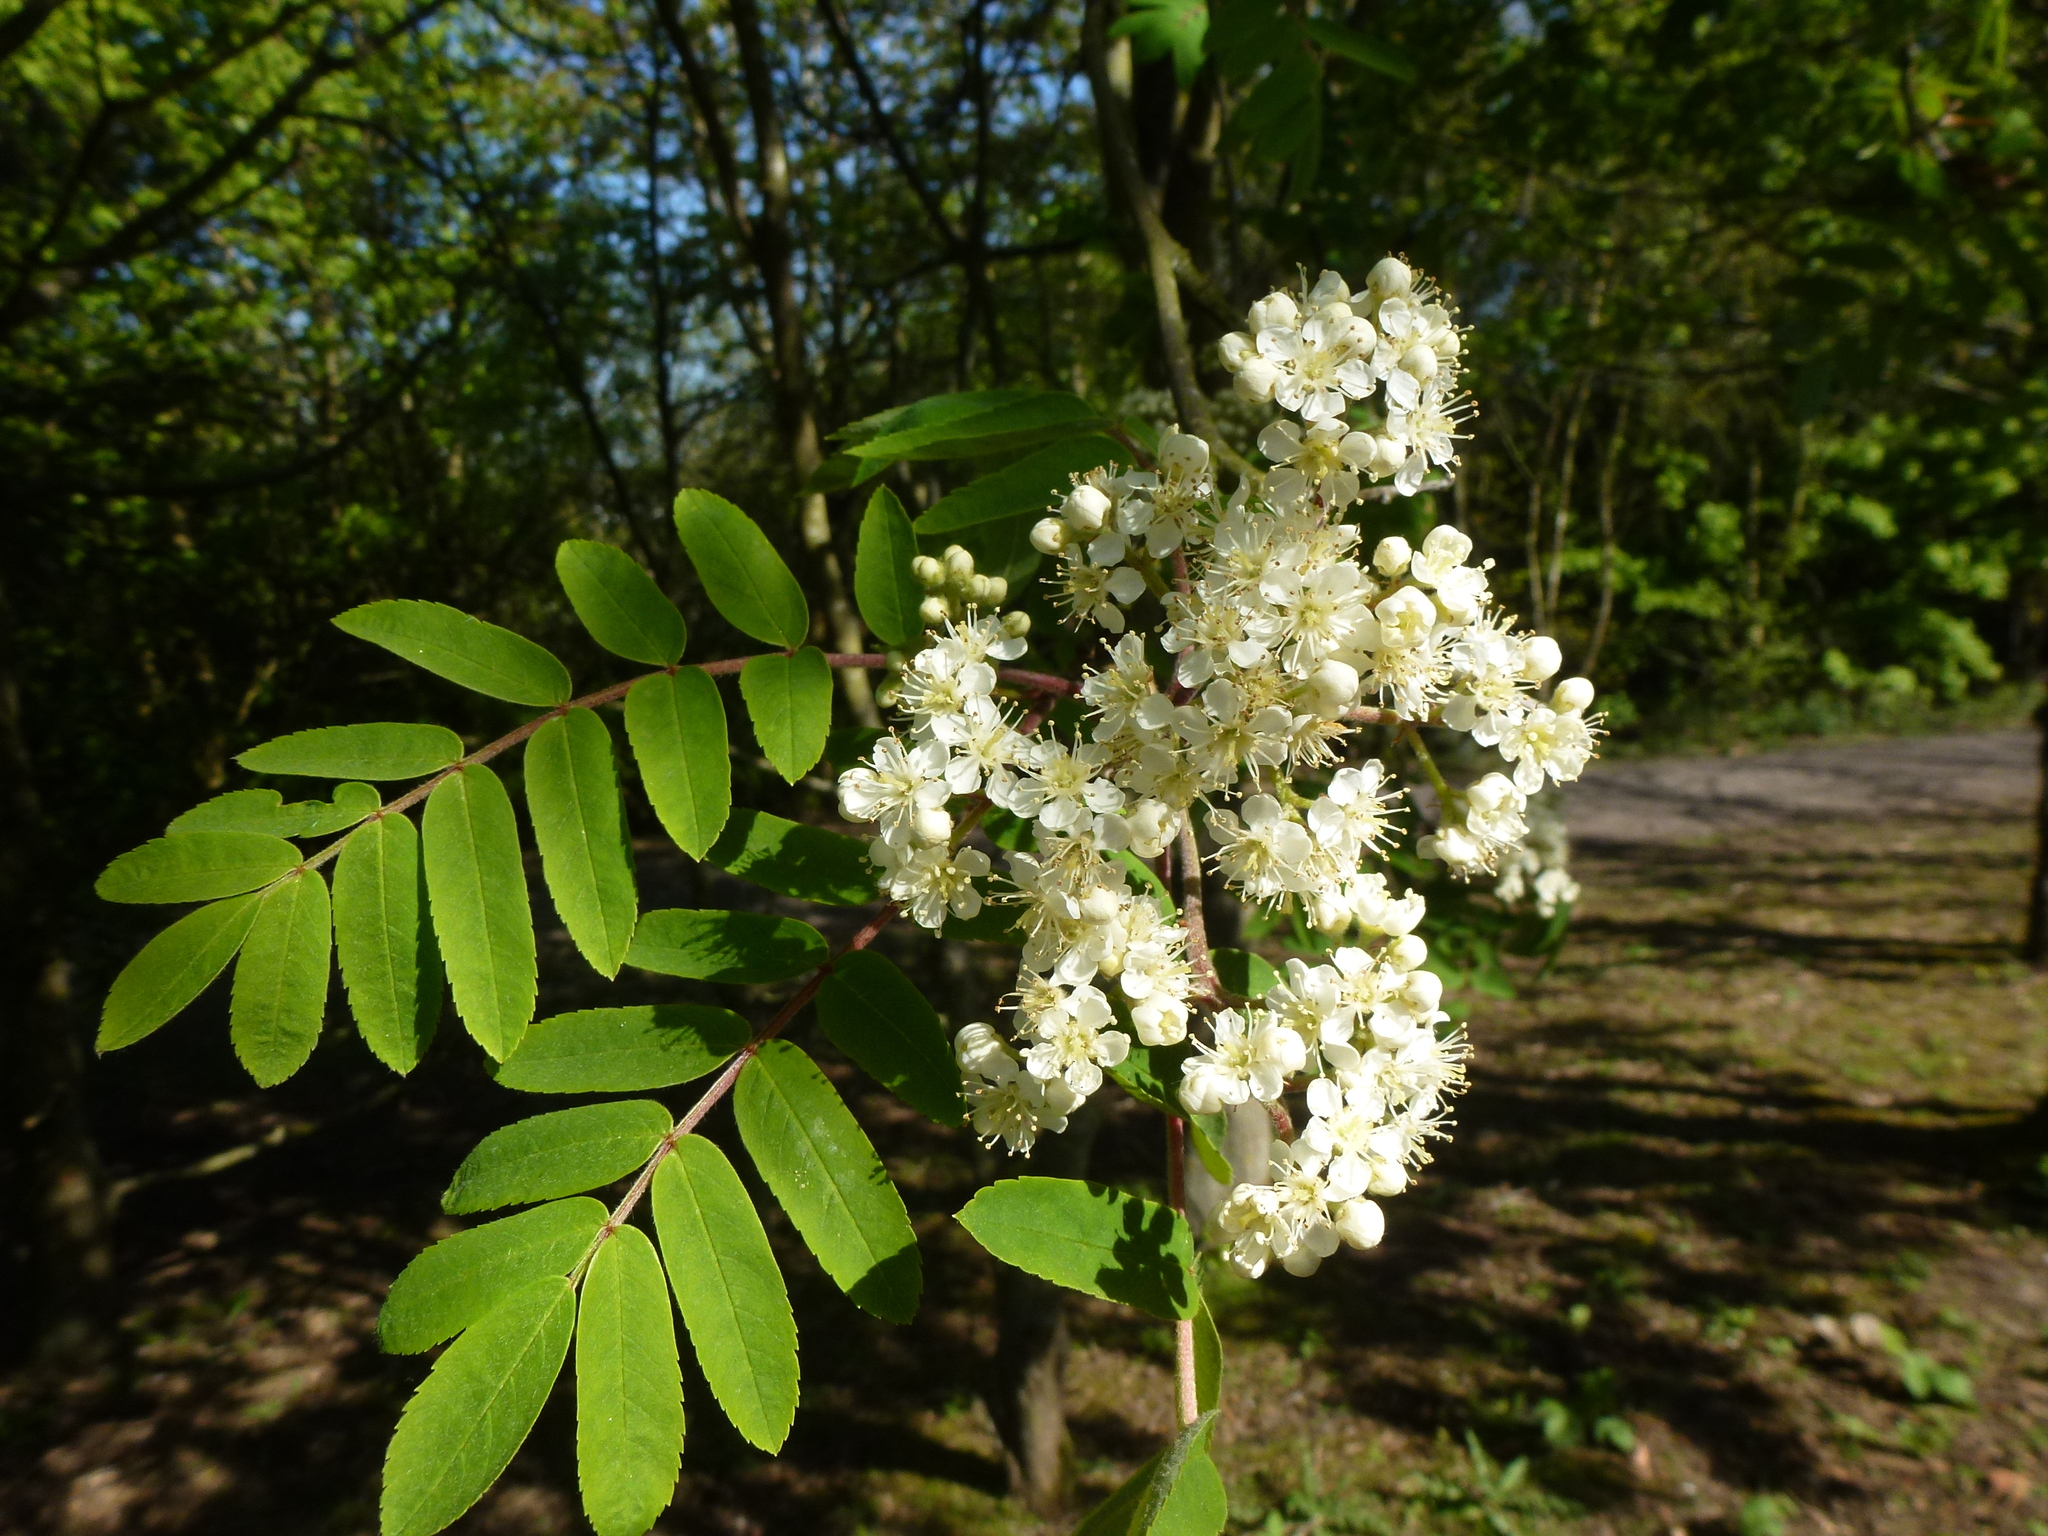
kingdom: Plantae
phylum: Tracheophyta
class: Magnoliopsida
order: Rosales
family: Rosaceae
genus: Sorbus
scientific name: Sorbus aucuparia
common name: Rowan
